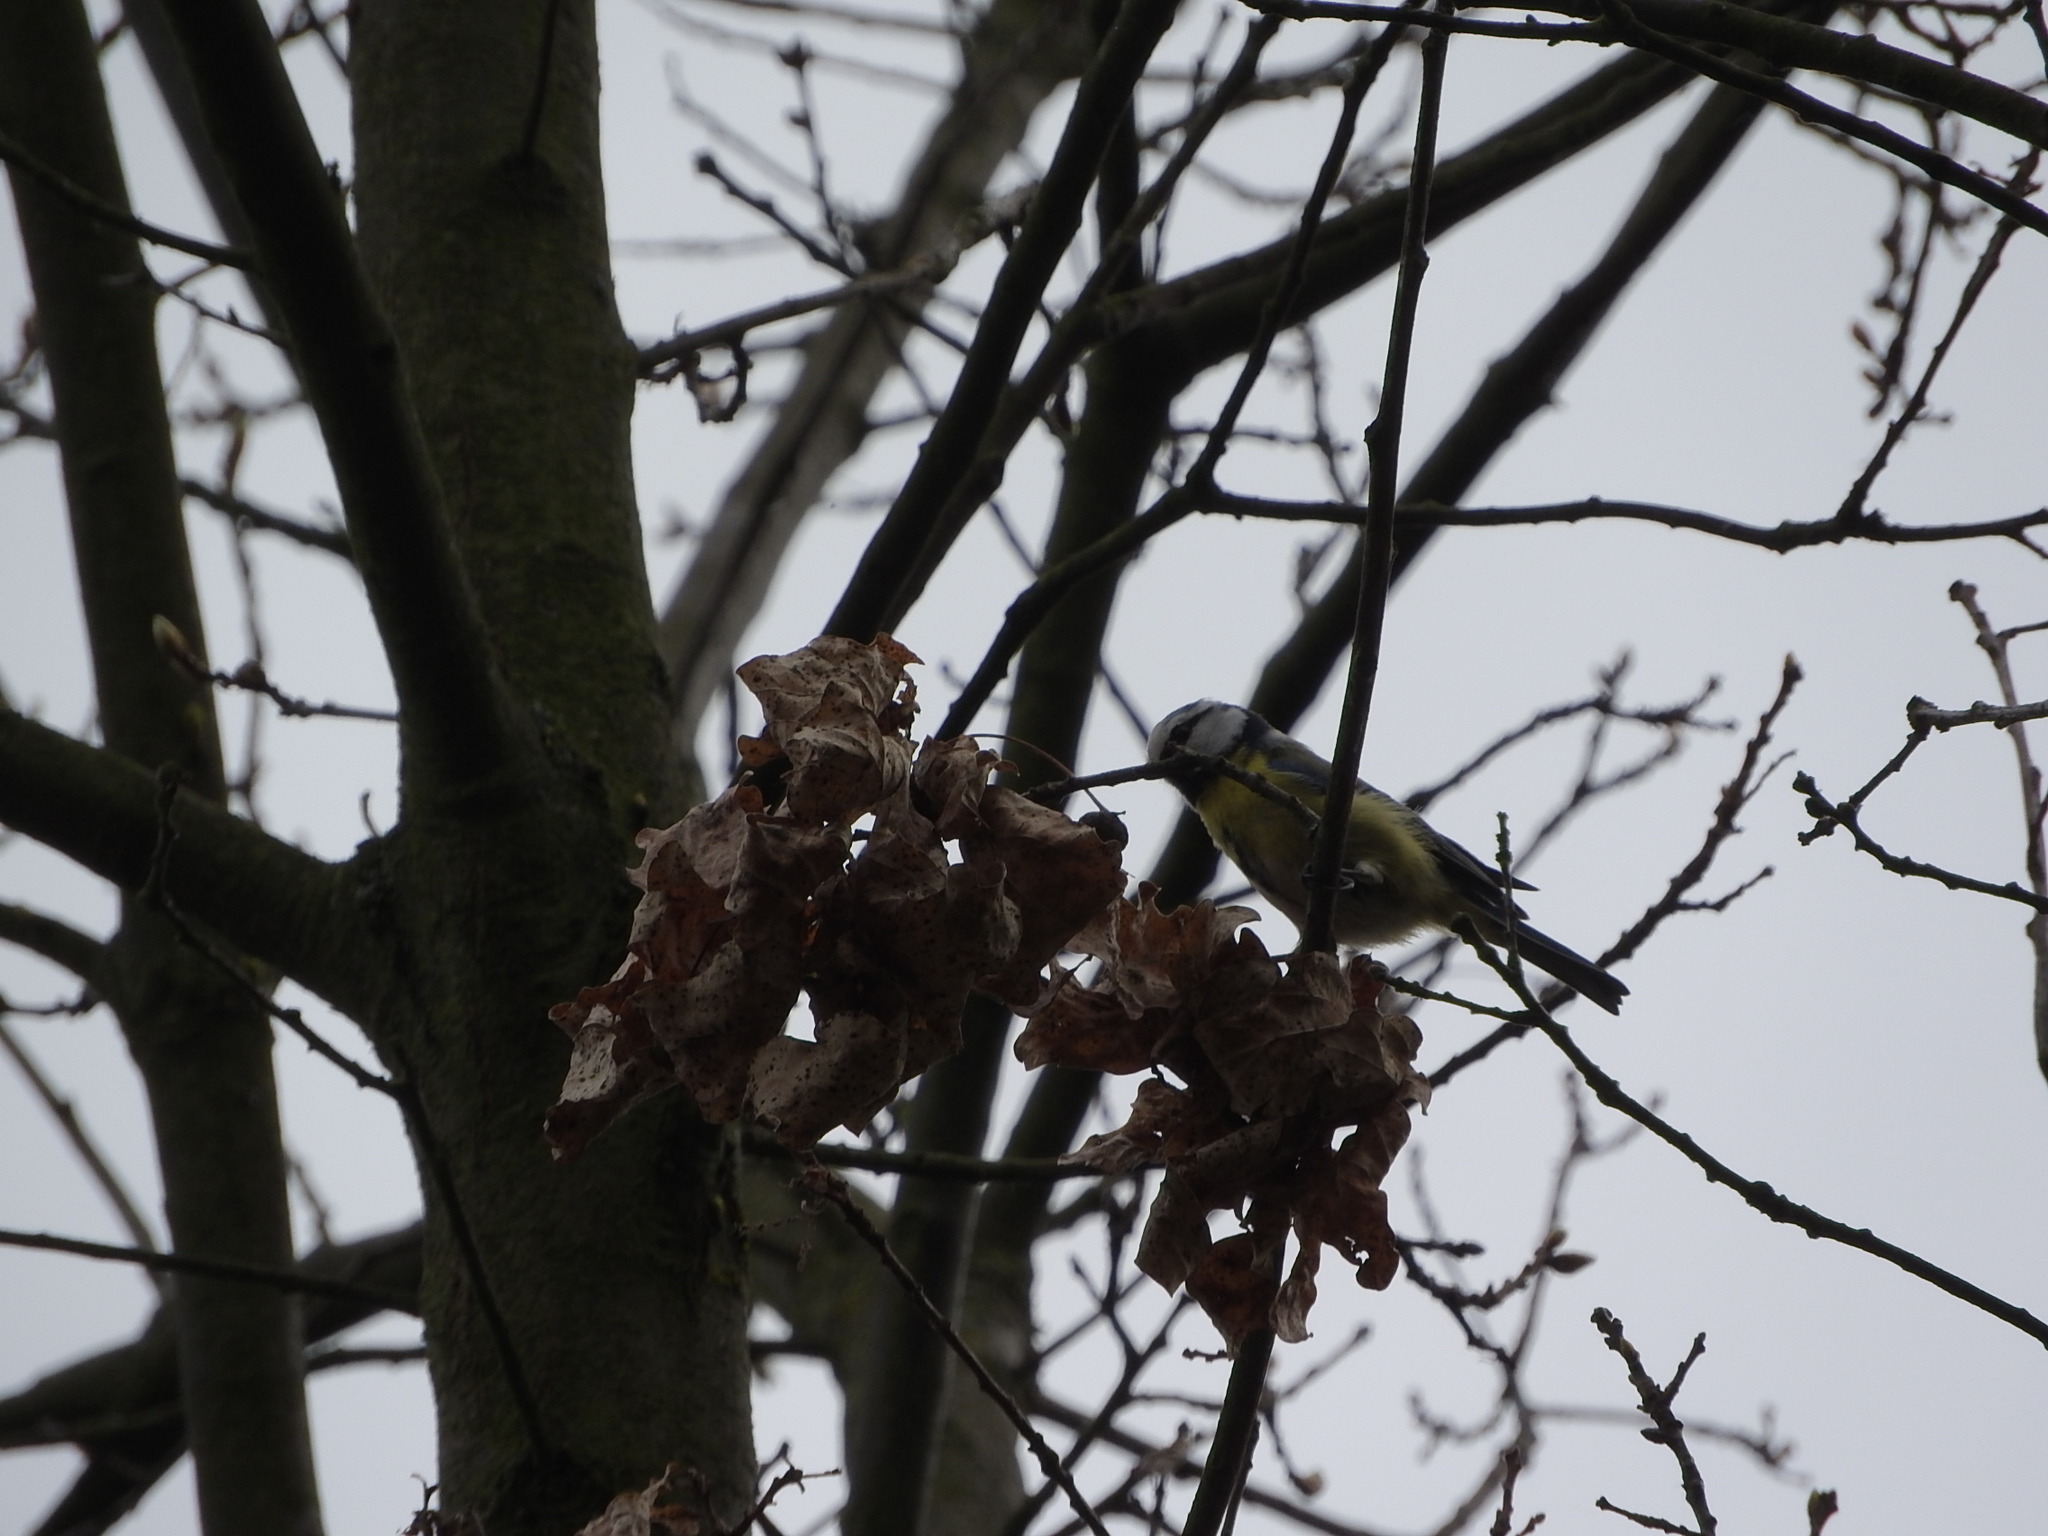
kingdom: Animalia
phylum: Chordata
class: Aves
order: Passeriformes
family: Paridae
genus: Cyanistes
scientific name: Cyanistes caeruleus
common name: Eurasian blue tit
